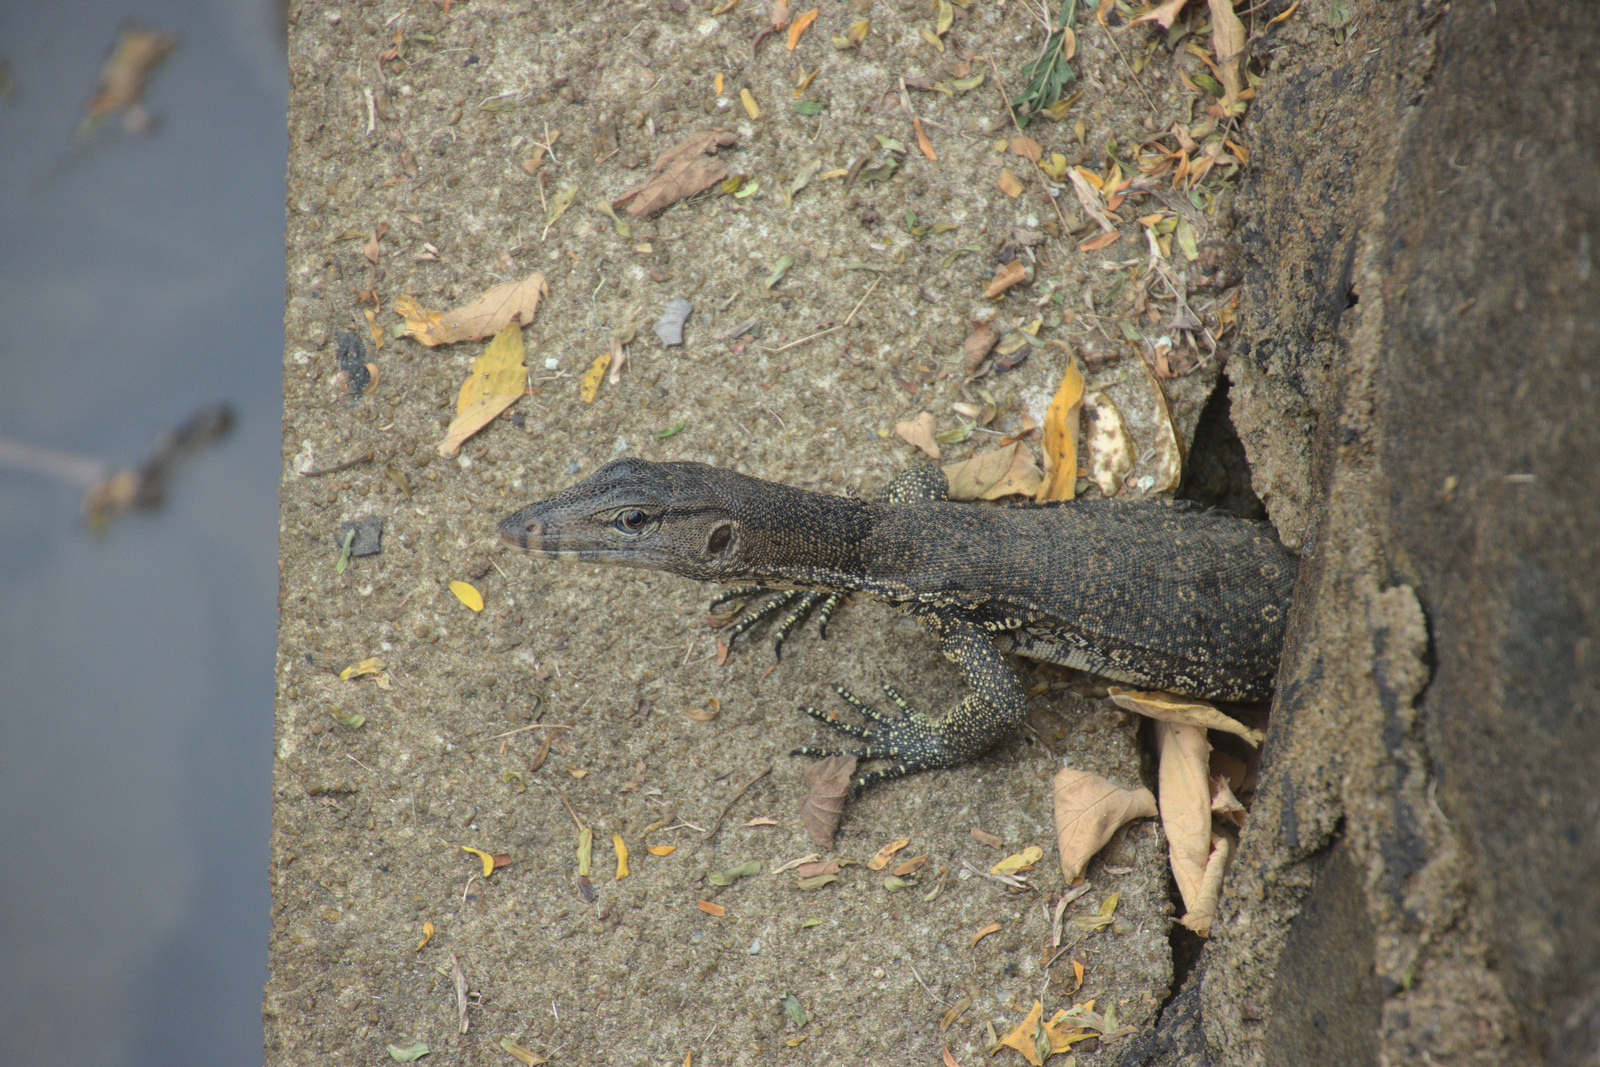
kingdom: Animalia
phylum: Chordata
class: Squamata
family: Varanidae
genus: Varanus
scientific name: Varanus salvator
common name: Common water monitor
